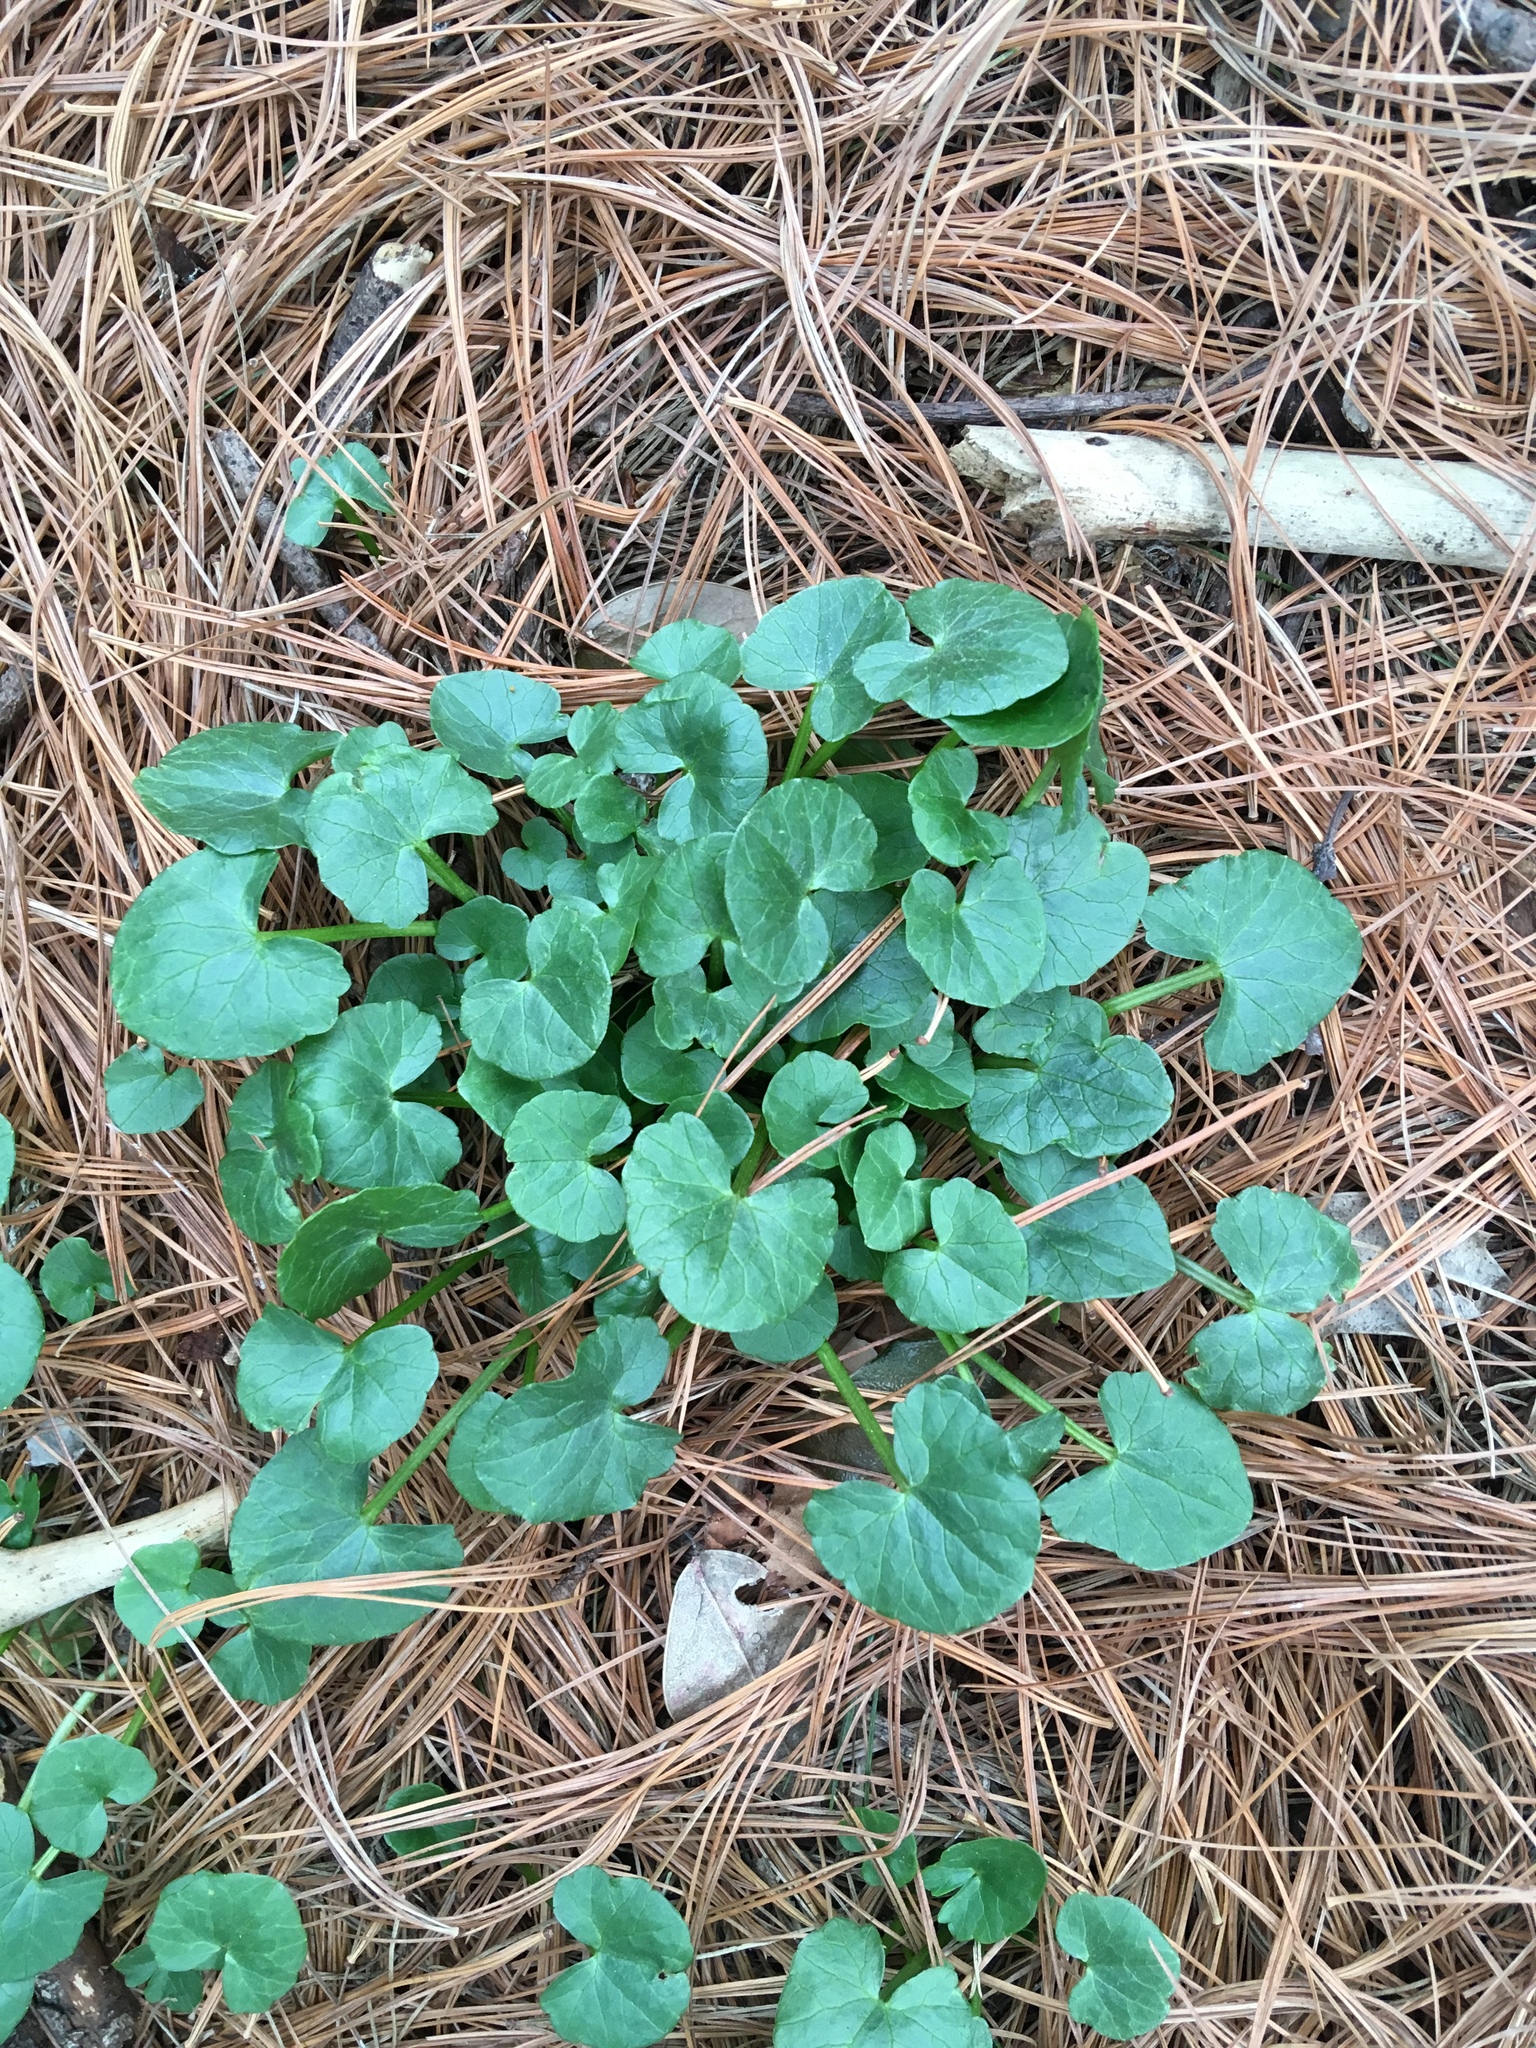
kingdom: Plantae
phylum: Tracheophyta
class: Magnoliopsida
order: Ranunculales
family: Ranunculaceae
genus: Ficaria
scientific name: Ficaria verna
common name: Lesser celandine
